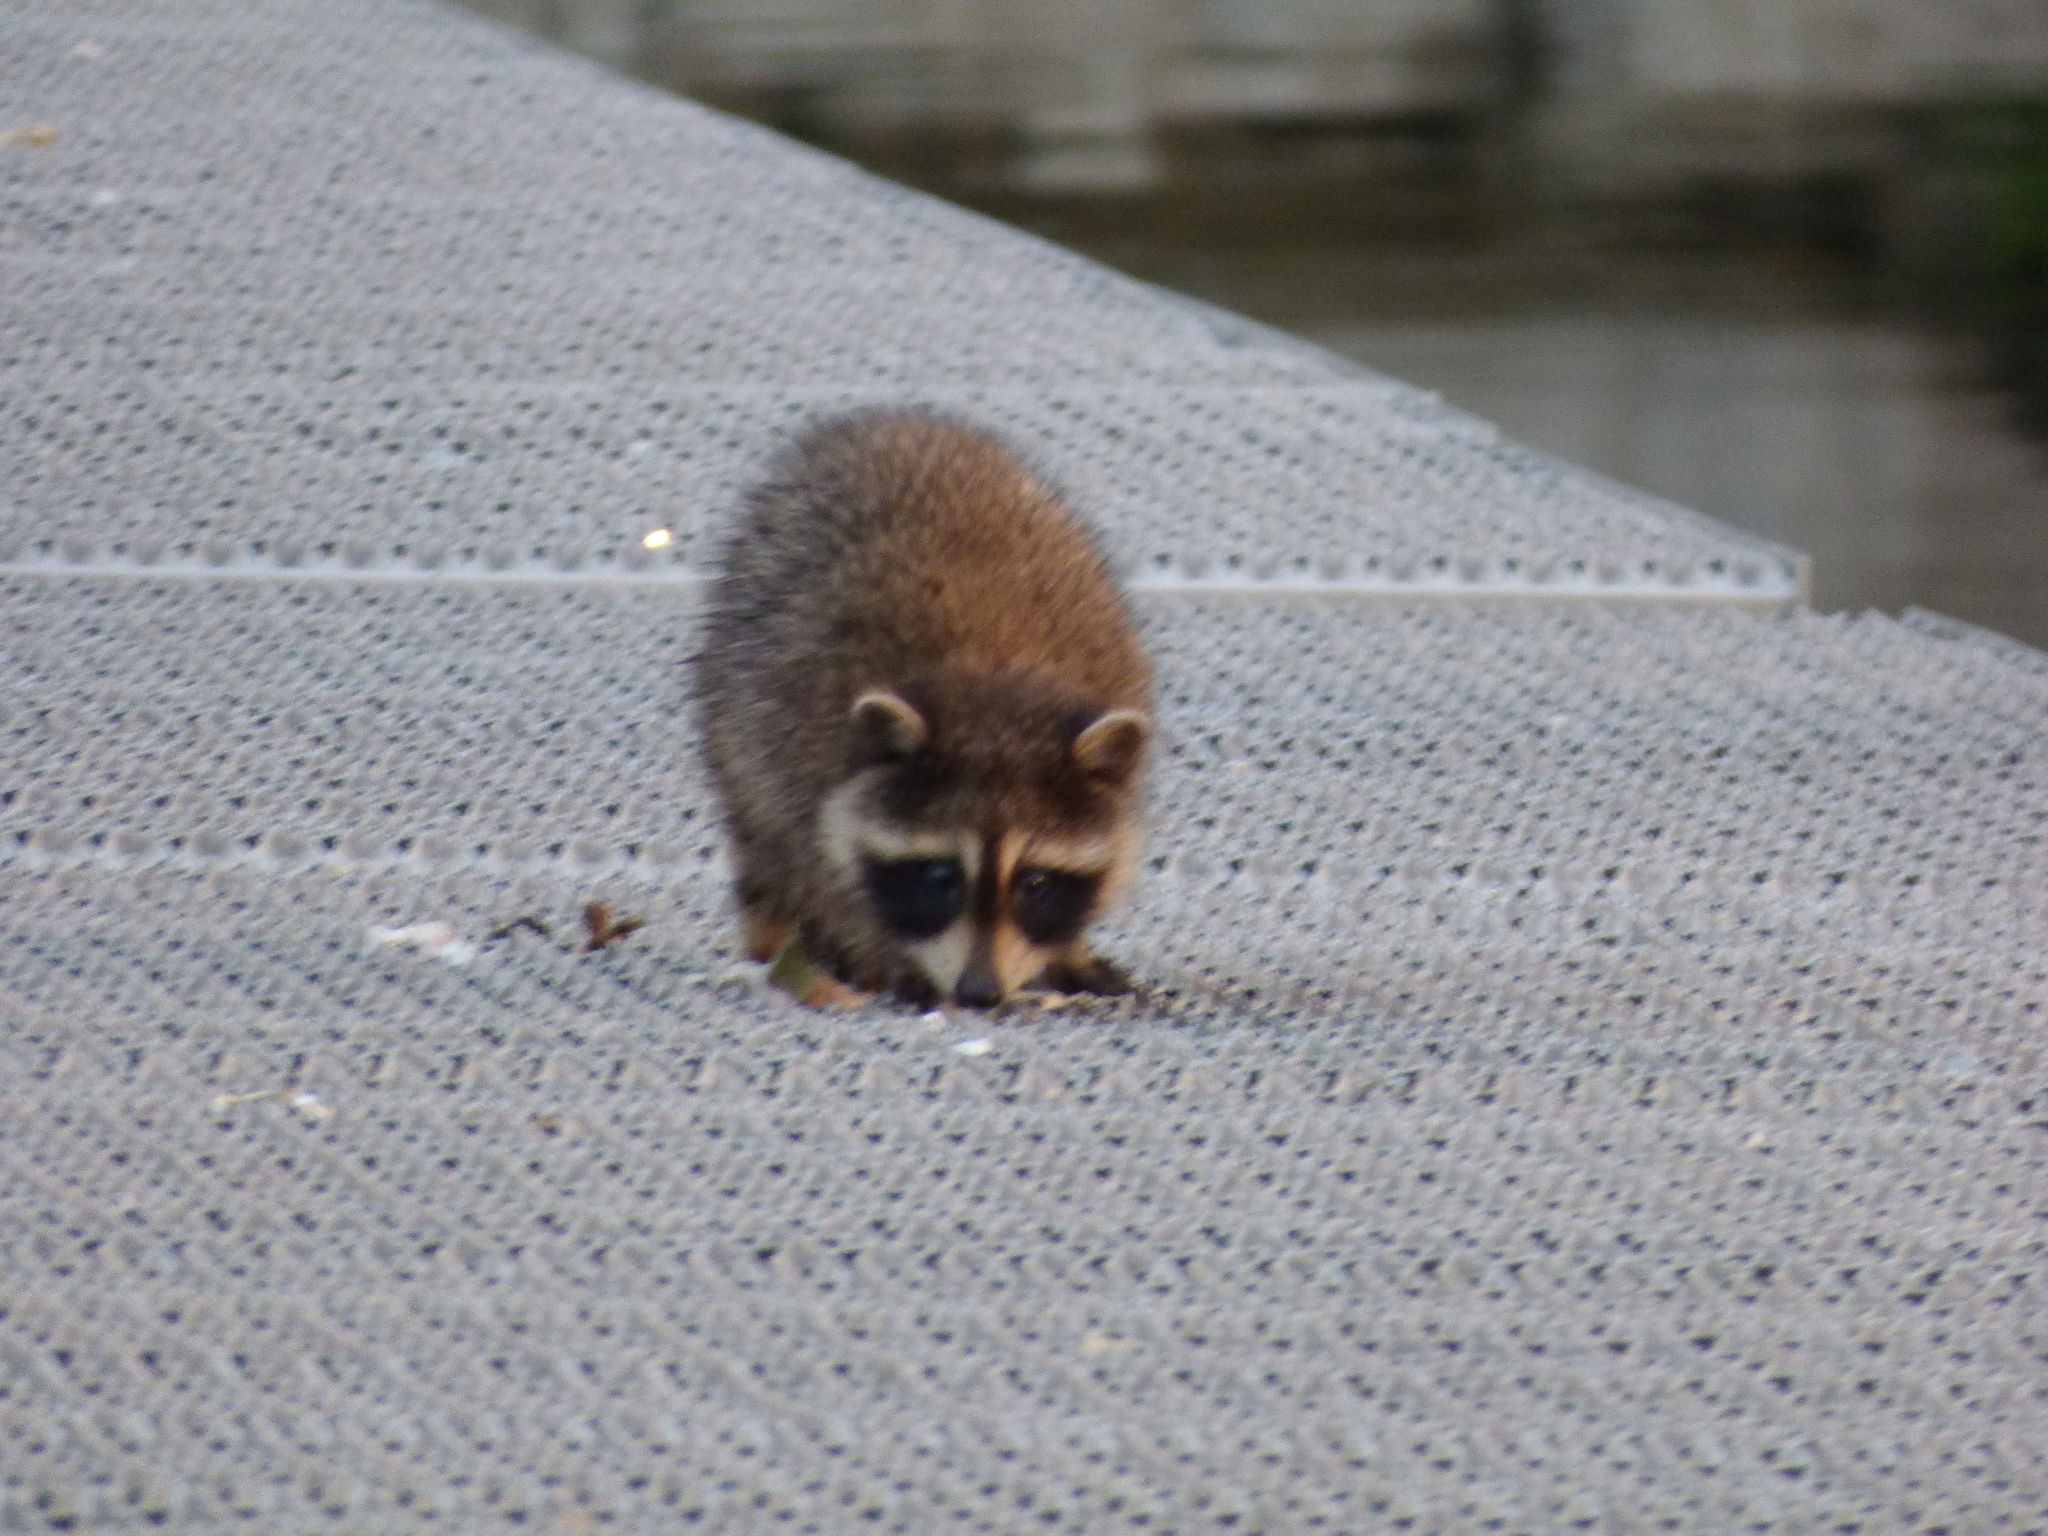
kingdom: Animalia
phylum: Chordata
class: Mammalia
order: Carnivora
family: Procyonidae
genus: Procyon
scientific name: Procyon lotor
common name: Raccoon
